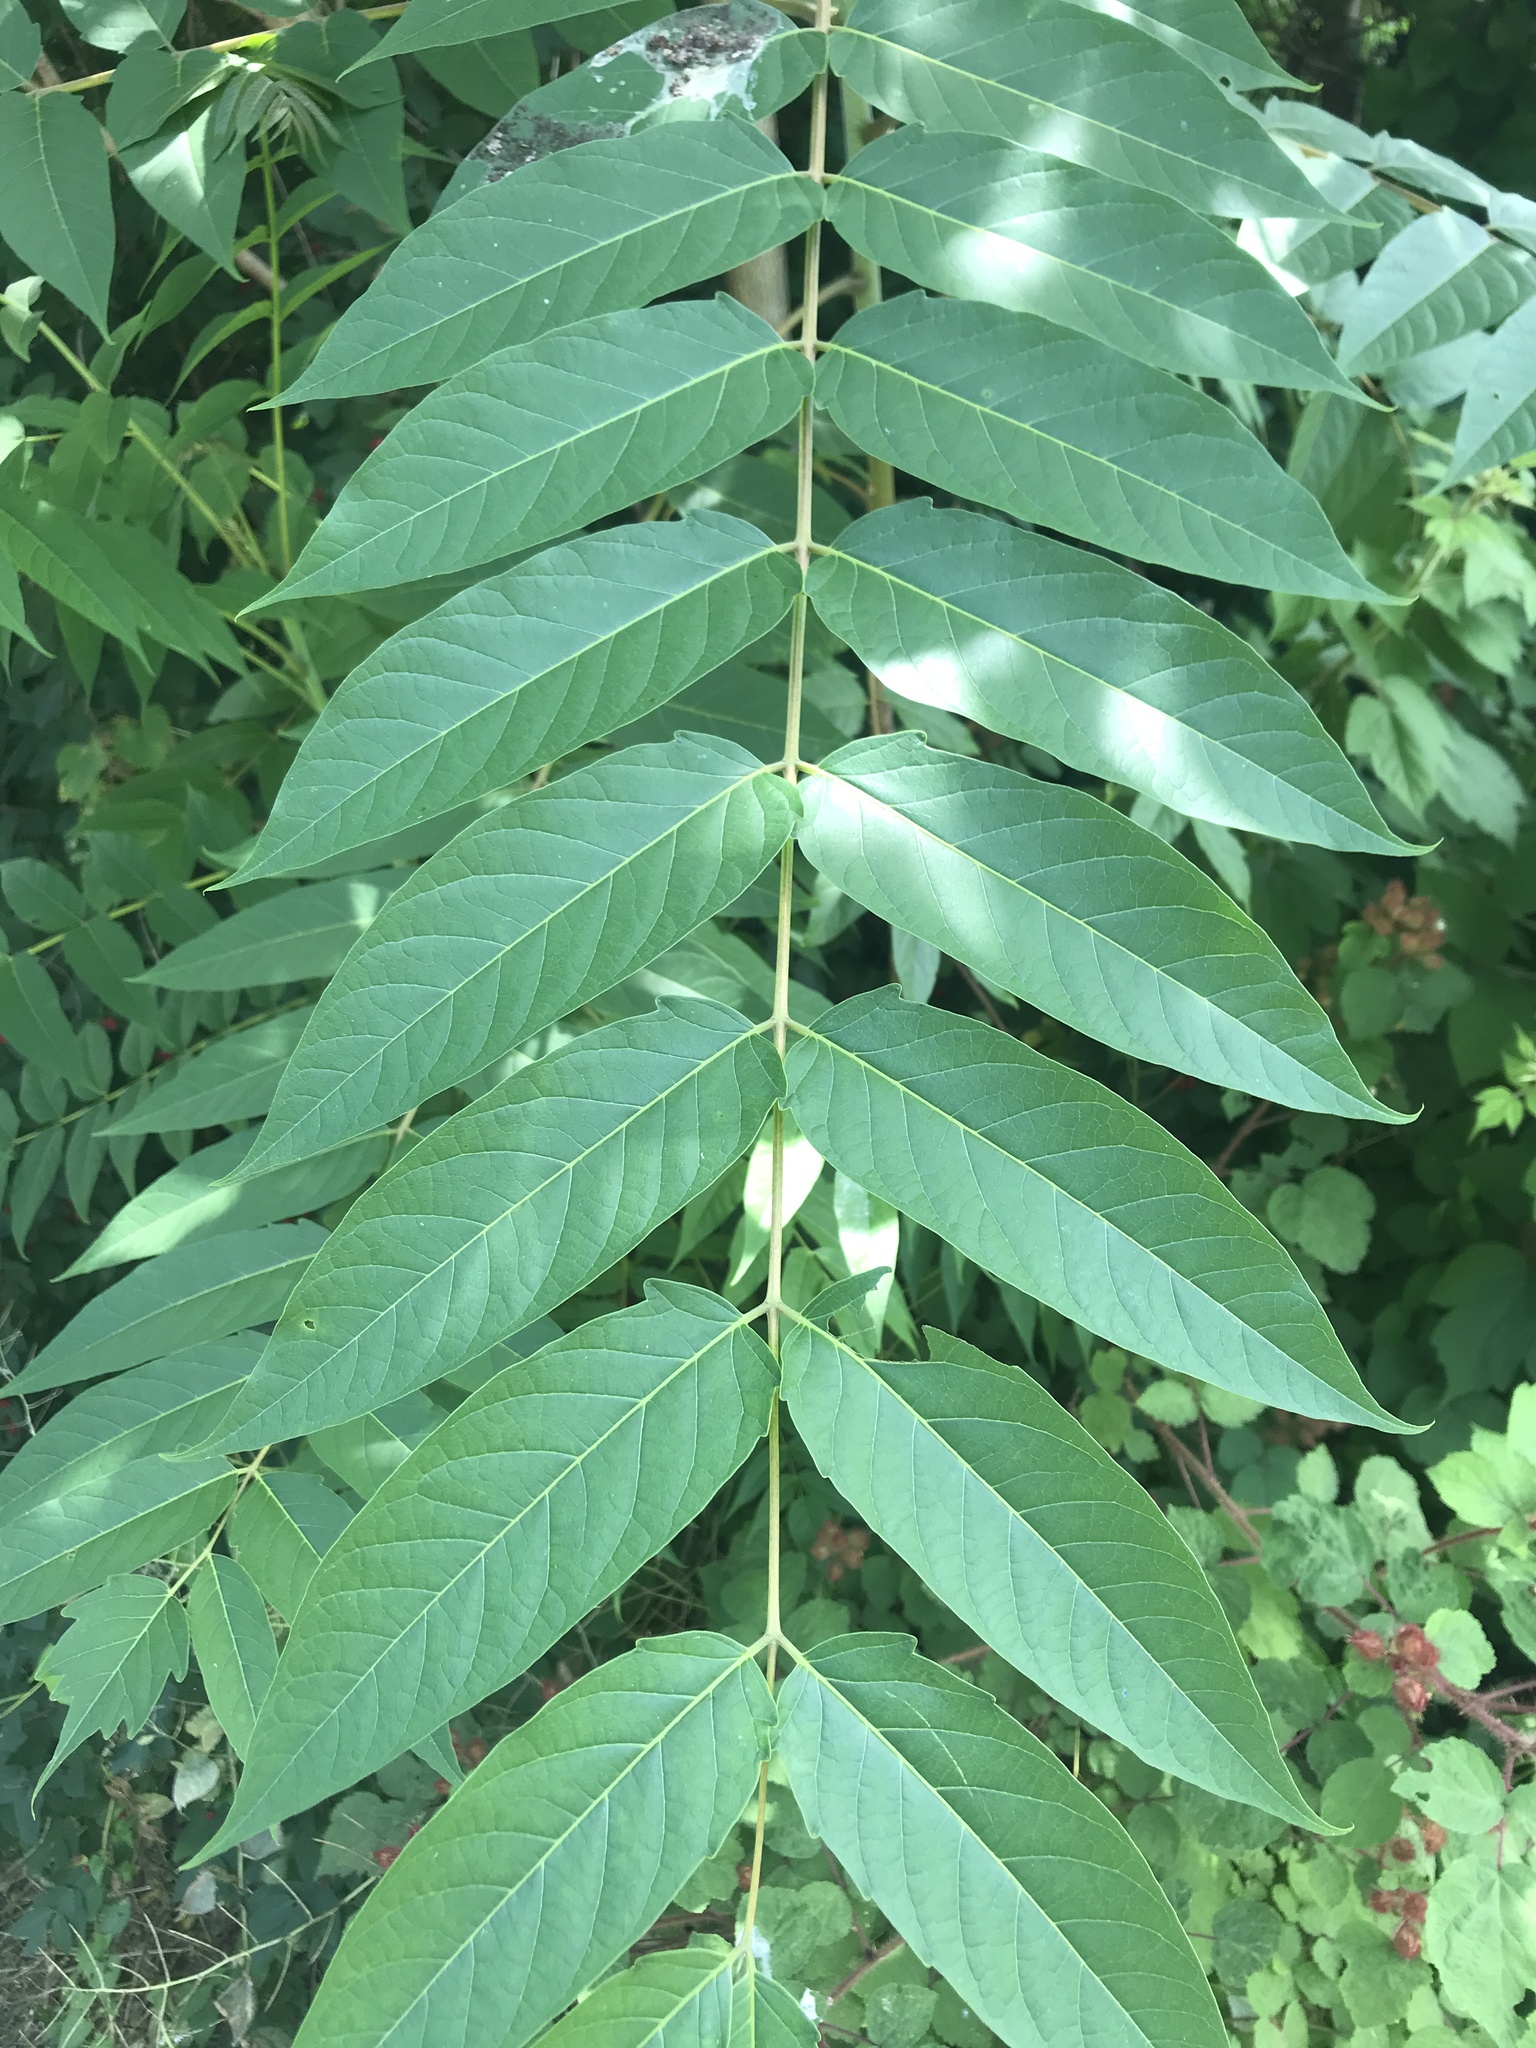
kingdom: Plantae
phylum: Tracheophyta
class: Magnoliopsida
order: Sapindales
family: Simaroubaceae
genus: Ailanthus
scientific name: Ailanthus altissima
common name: Tree-of-heaven
